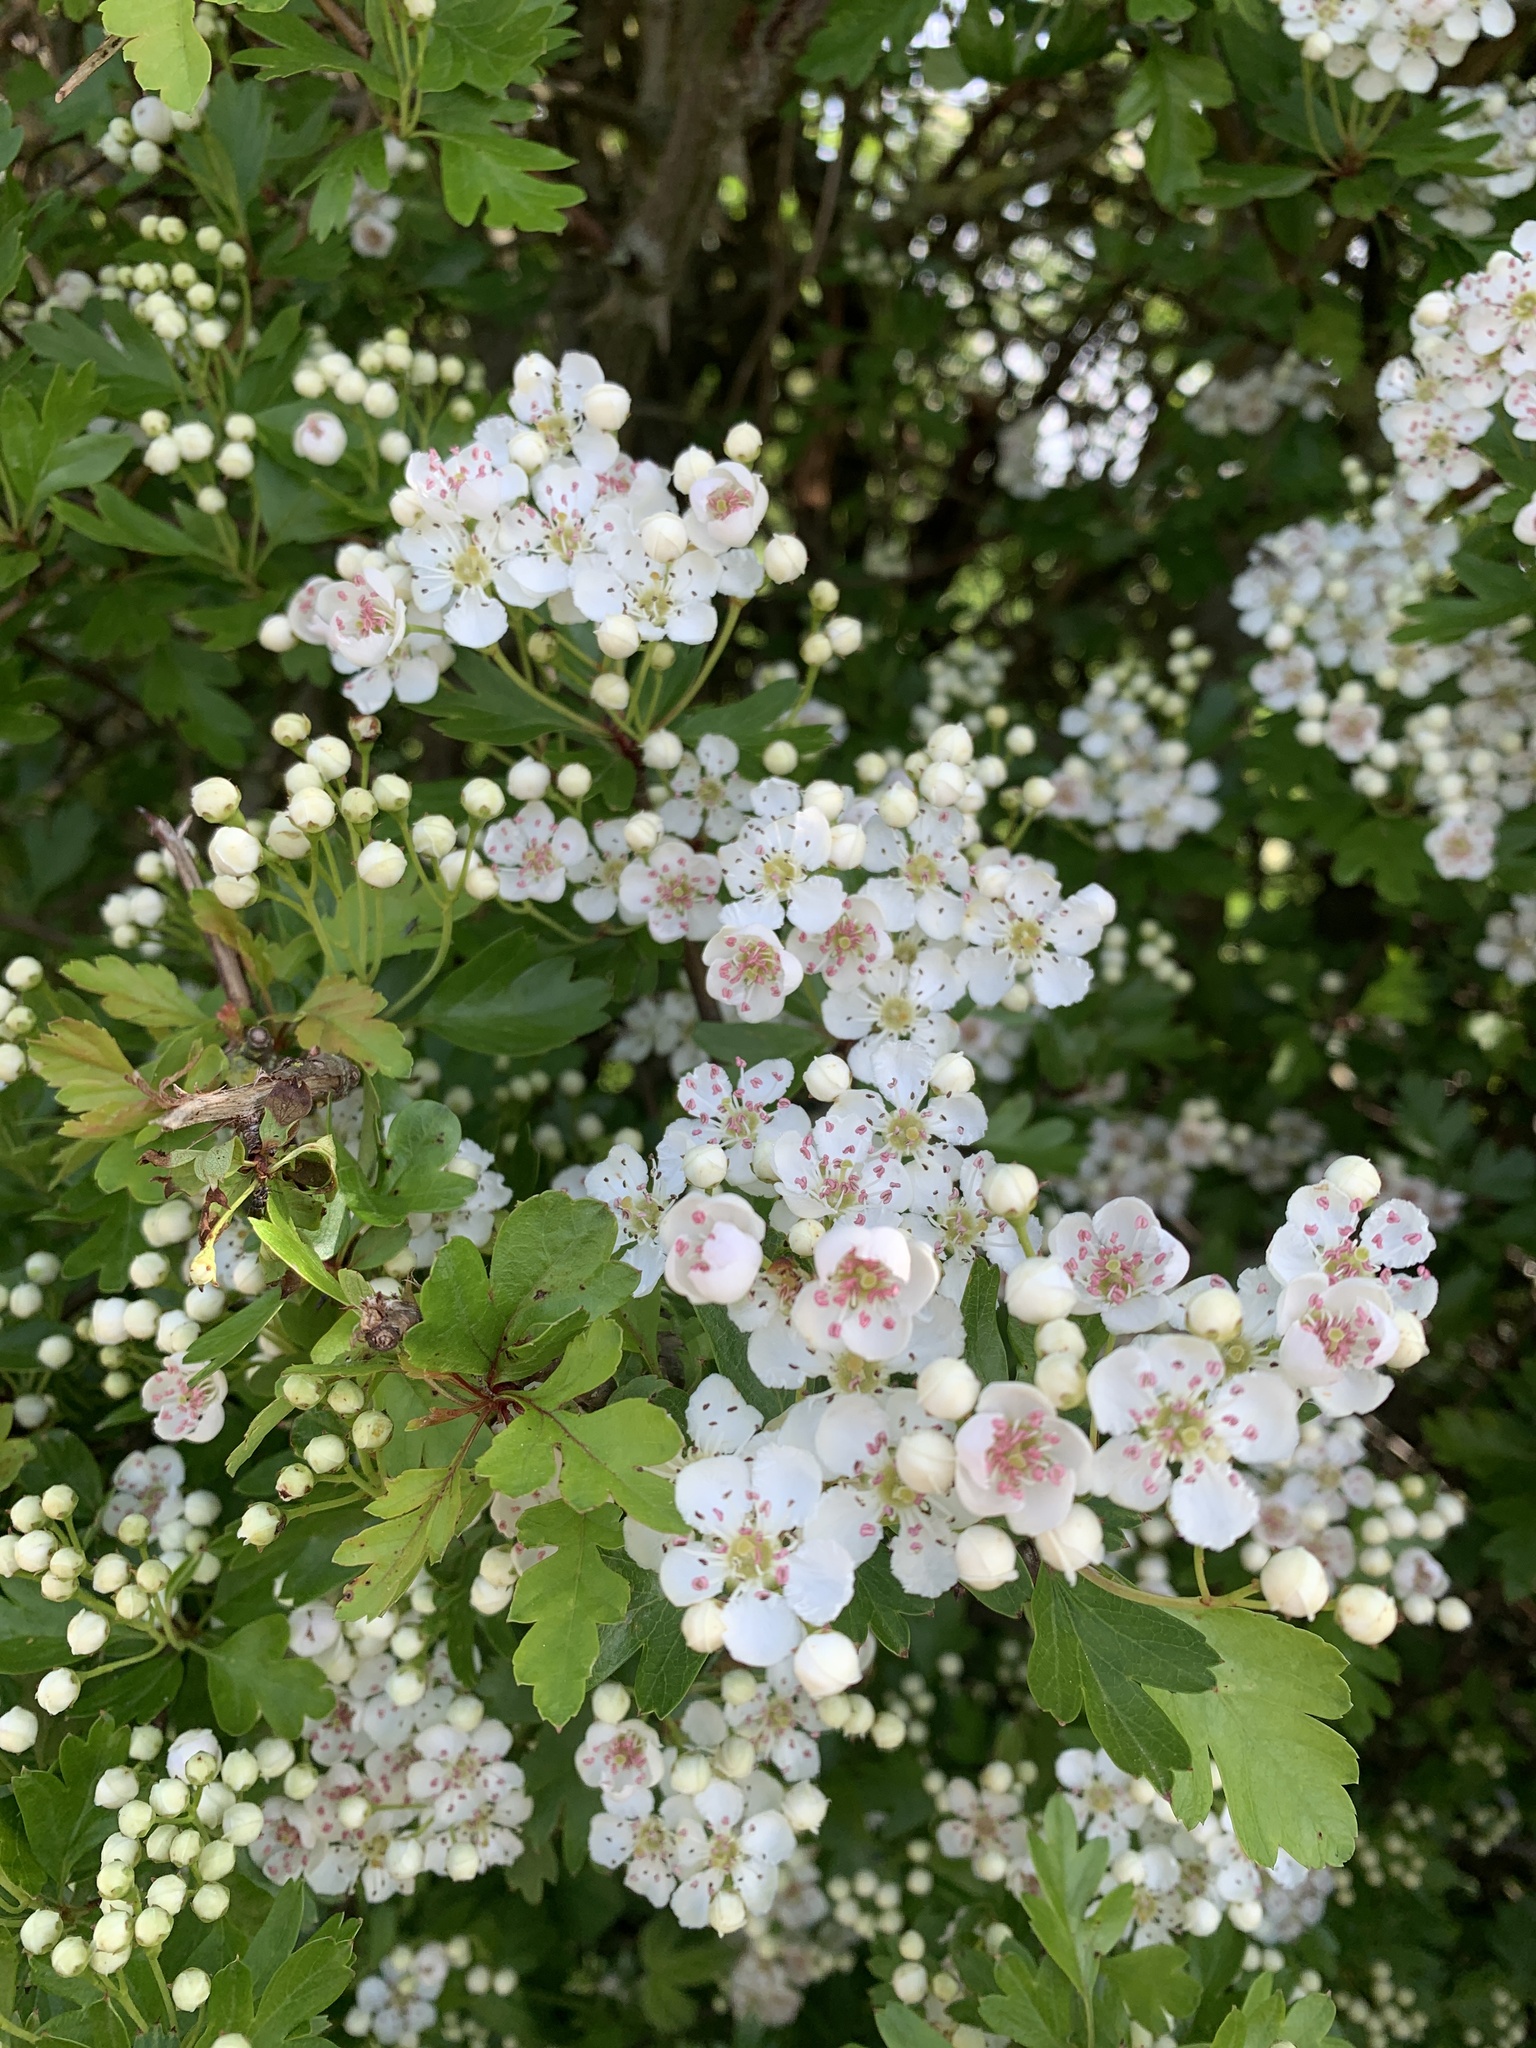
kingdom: Plantae
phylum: Tracheophyta
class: Magnoliopsida
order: Rosales
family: Rosaceae
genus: Crataegus
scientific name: Crataegus monogyna
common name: Hawthorn
